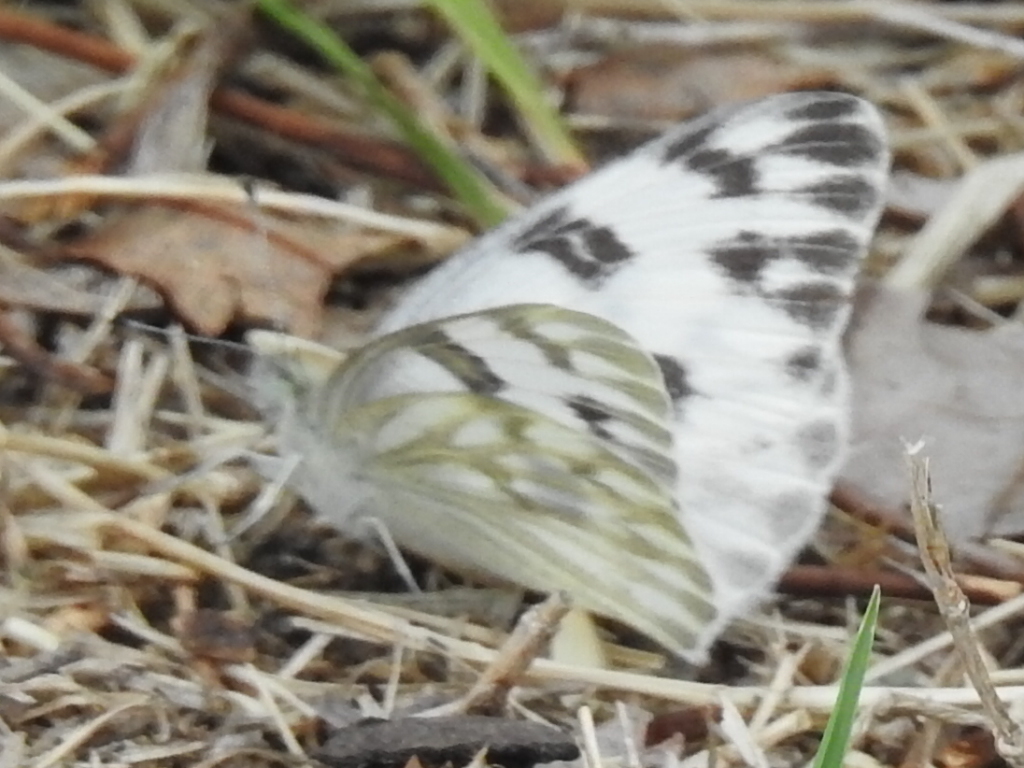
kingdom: Animalia
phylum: Arthropoda
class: Insecta
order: Lepidoptera
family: Pieridae
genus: Pontia
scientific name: Pontia protodice
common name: Checkered white
